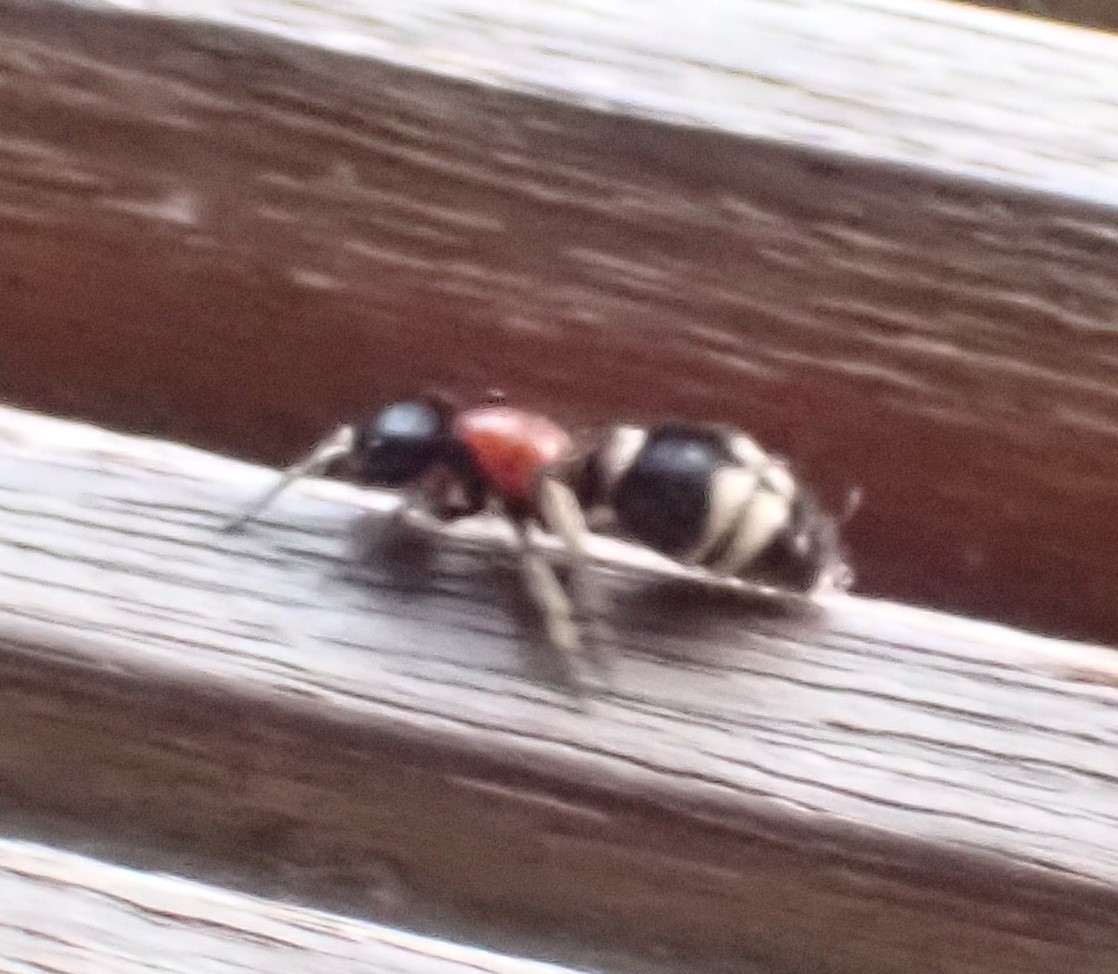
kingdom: Animalia
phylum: Arthropoda
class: Insecta
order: Hymenoptera
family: Mutillidae
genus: Mutilla
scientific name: Mutilla marginata
